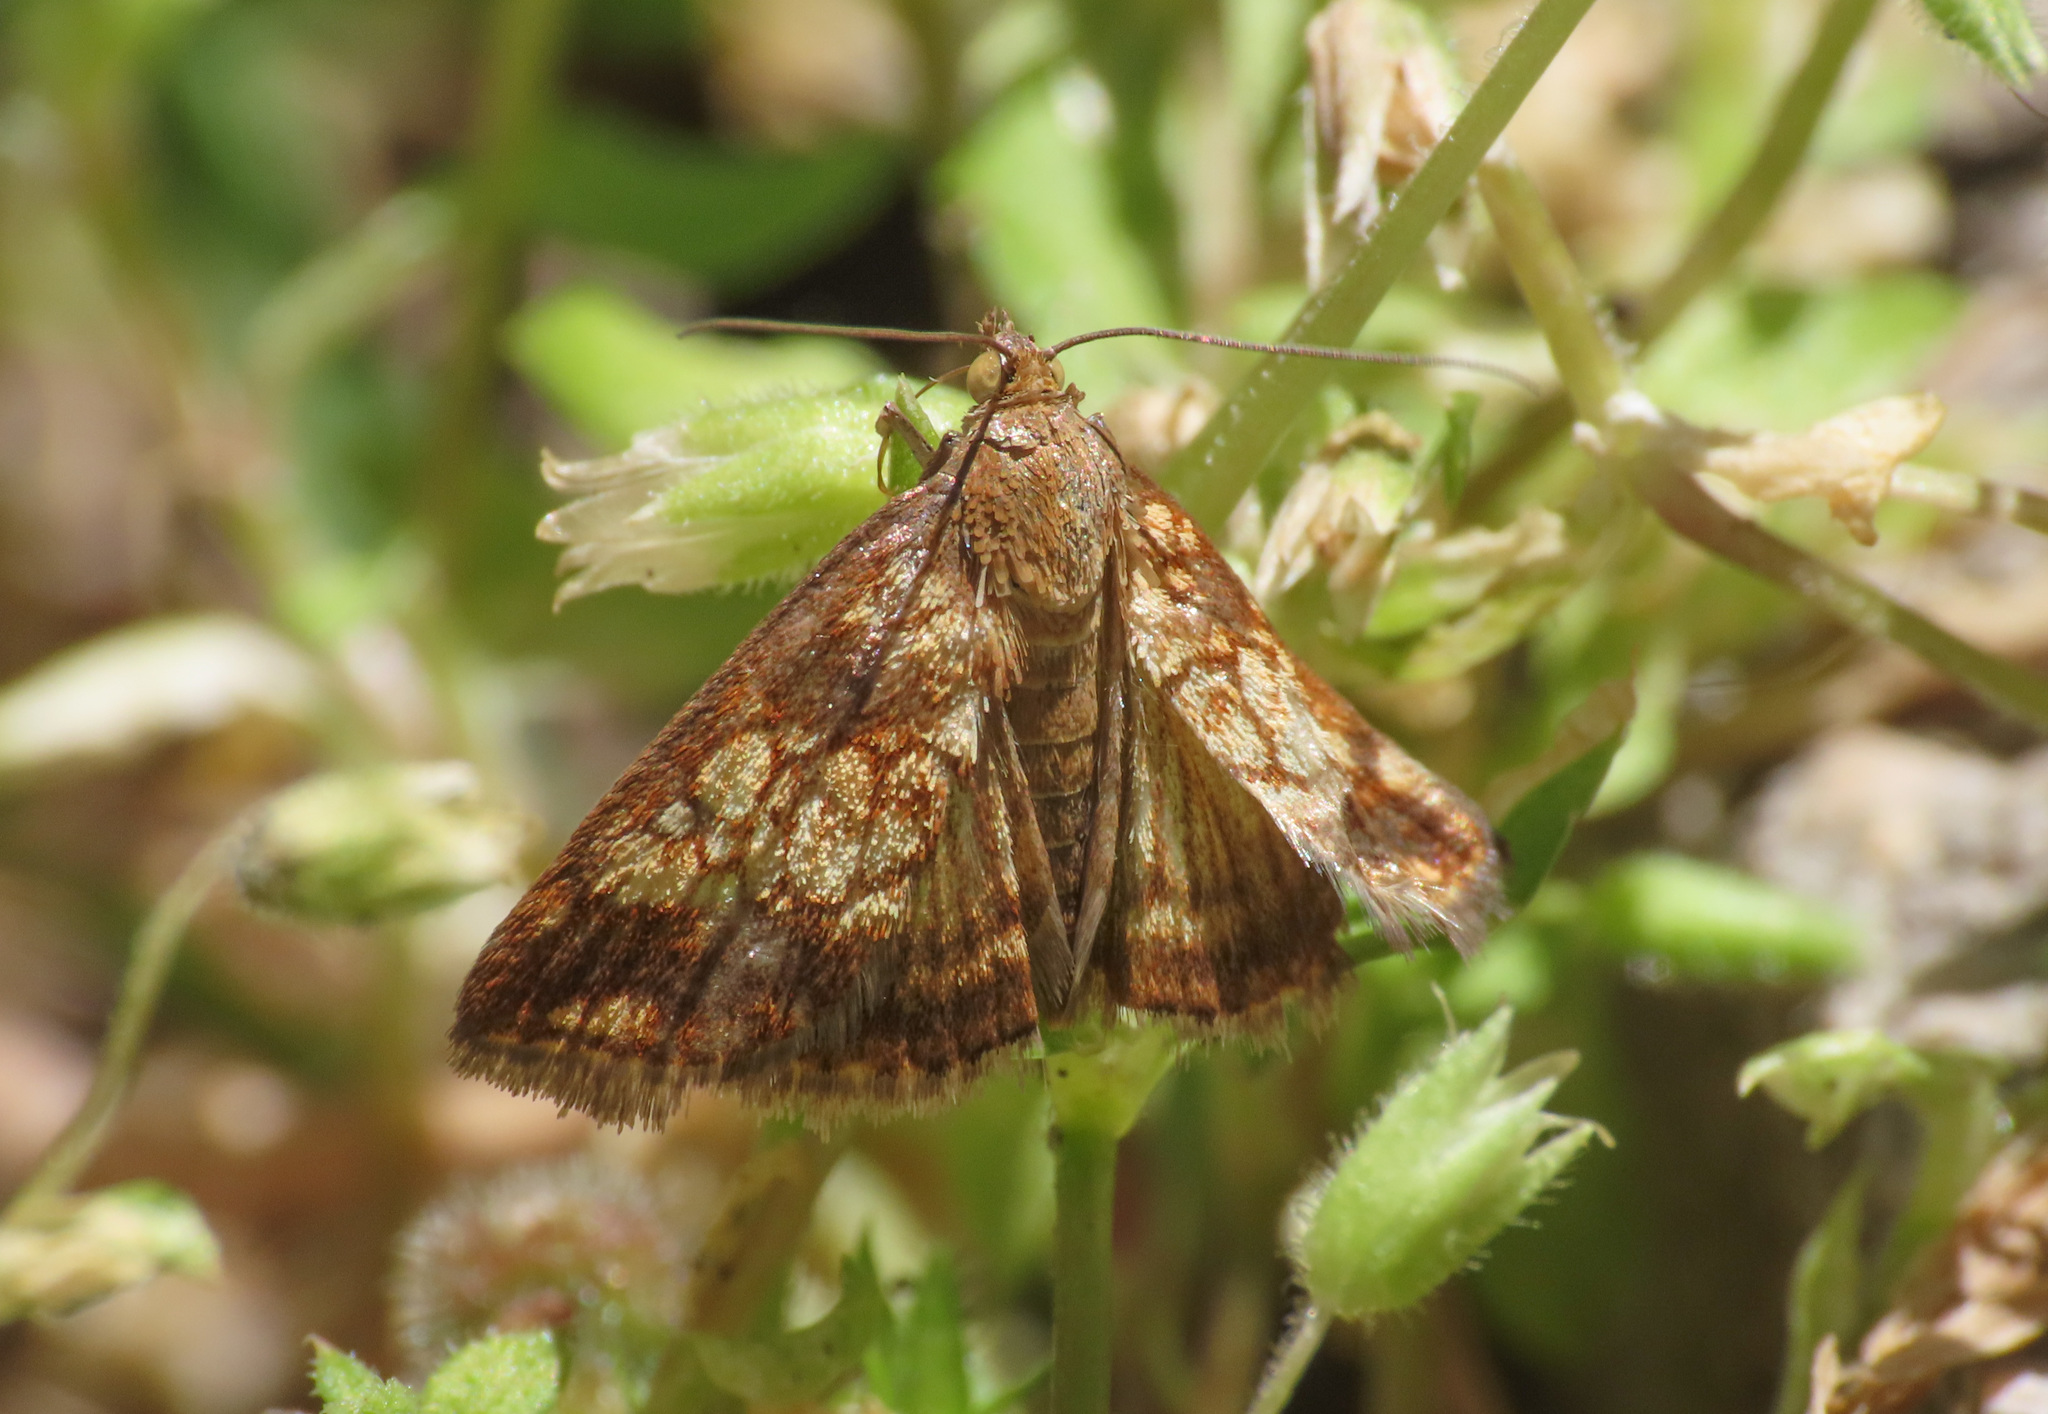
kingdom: Animalia
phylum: Arthropoda
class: Insecta
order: Lepidoptera
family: Crambidae
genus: Evergestis
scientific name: Evergestis politalis
